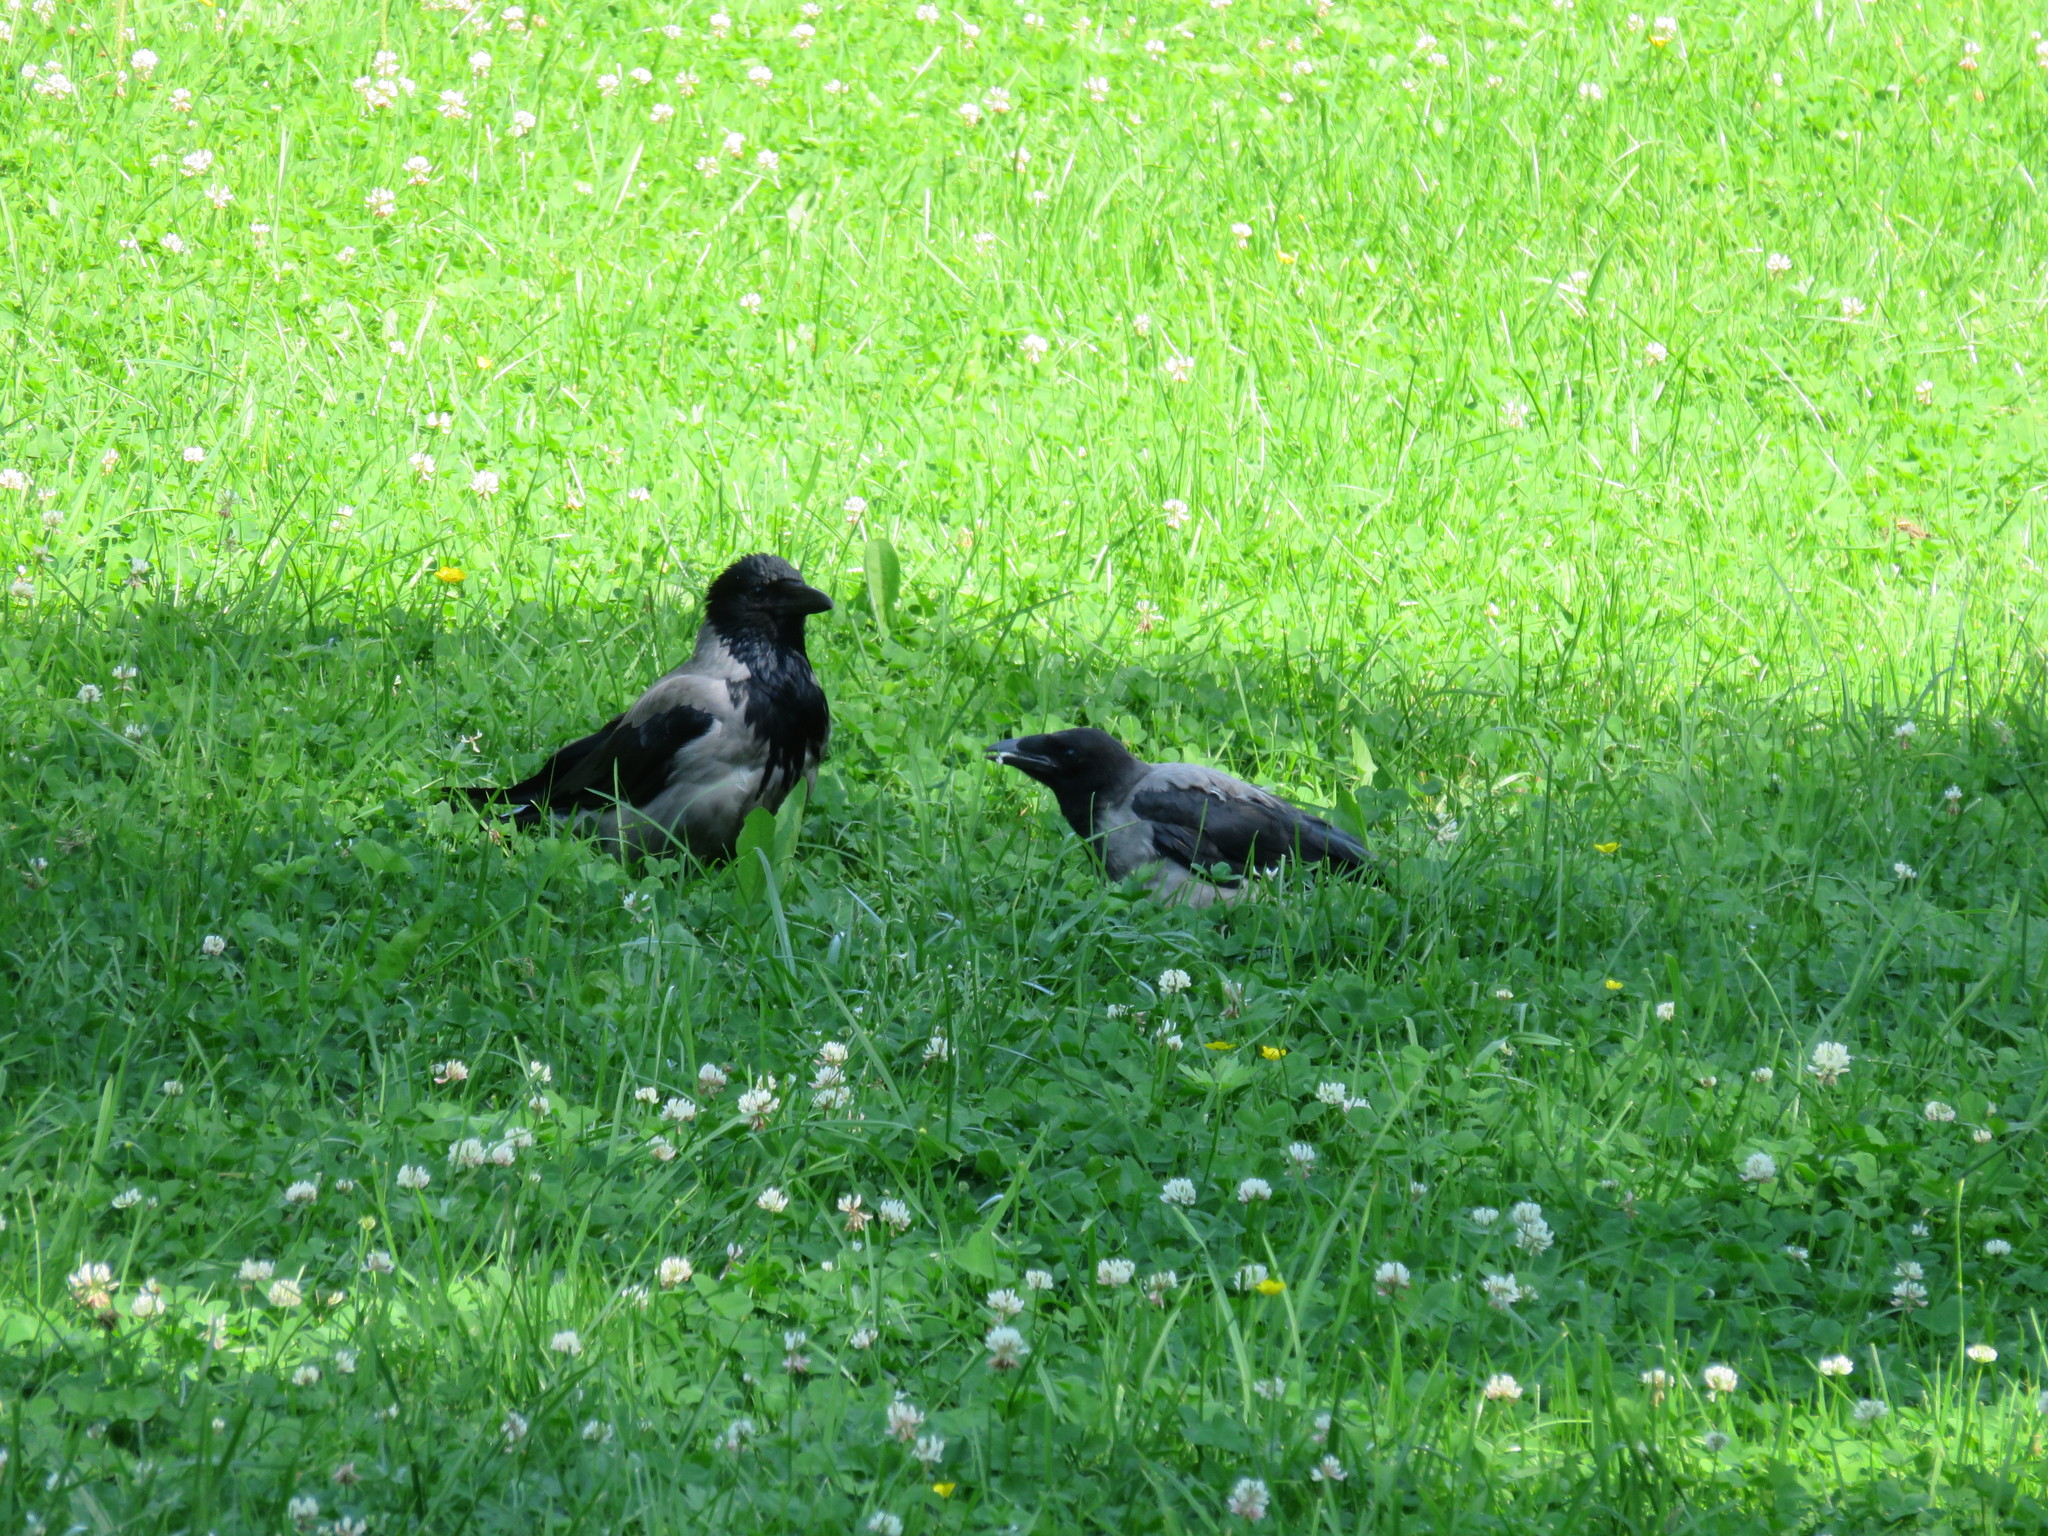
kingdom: Animalia
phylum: Chordata
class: Aves
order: Passeriformes
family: Corvidae
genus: Corvus
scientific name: Corvus cornix
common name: Hooded crow
